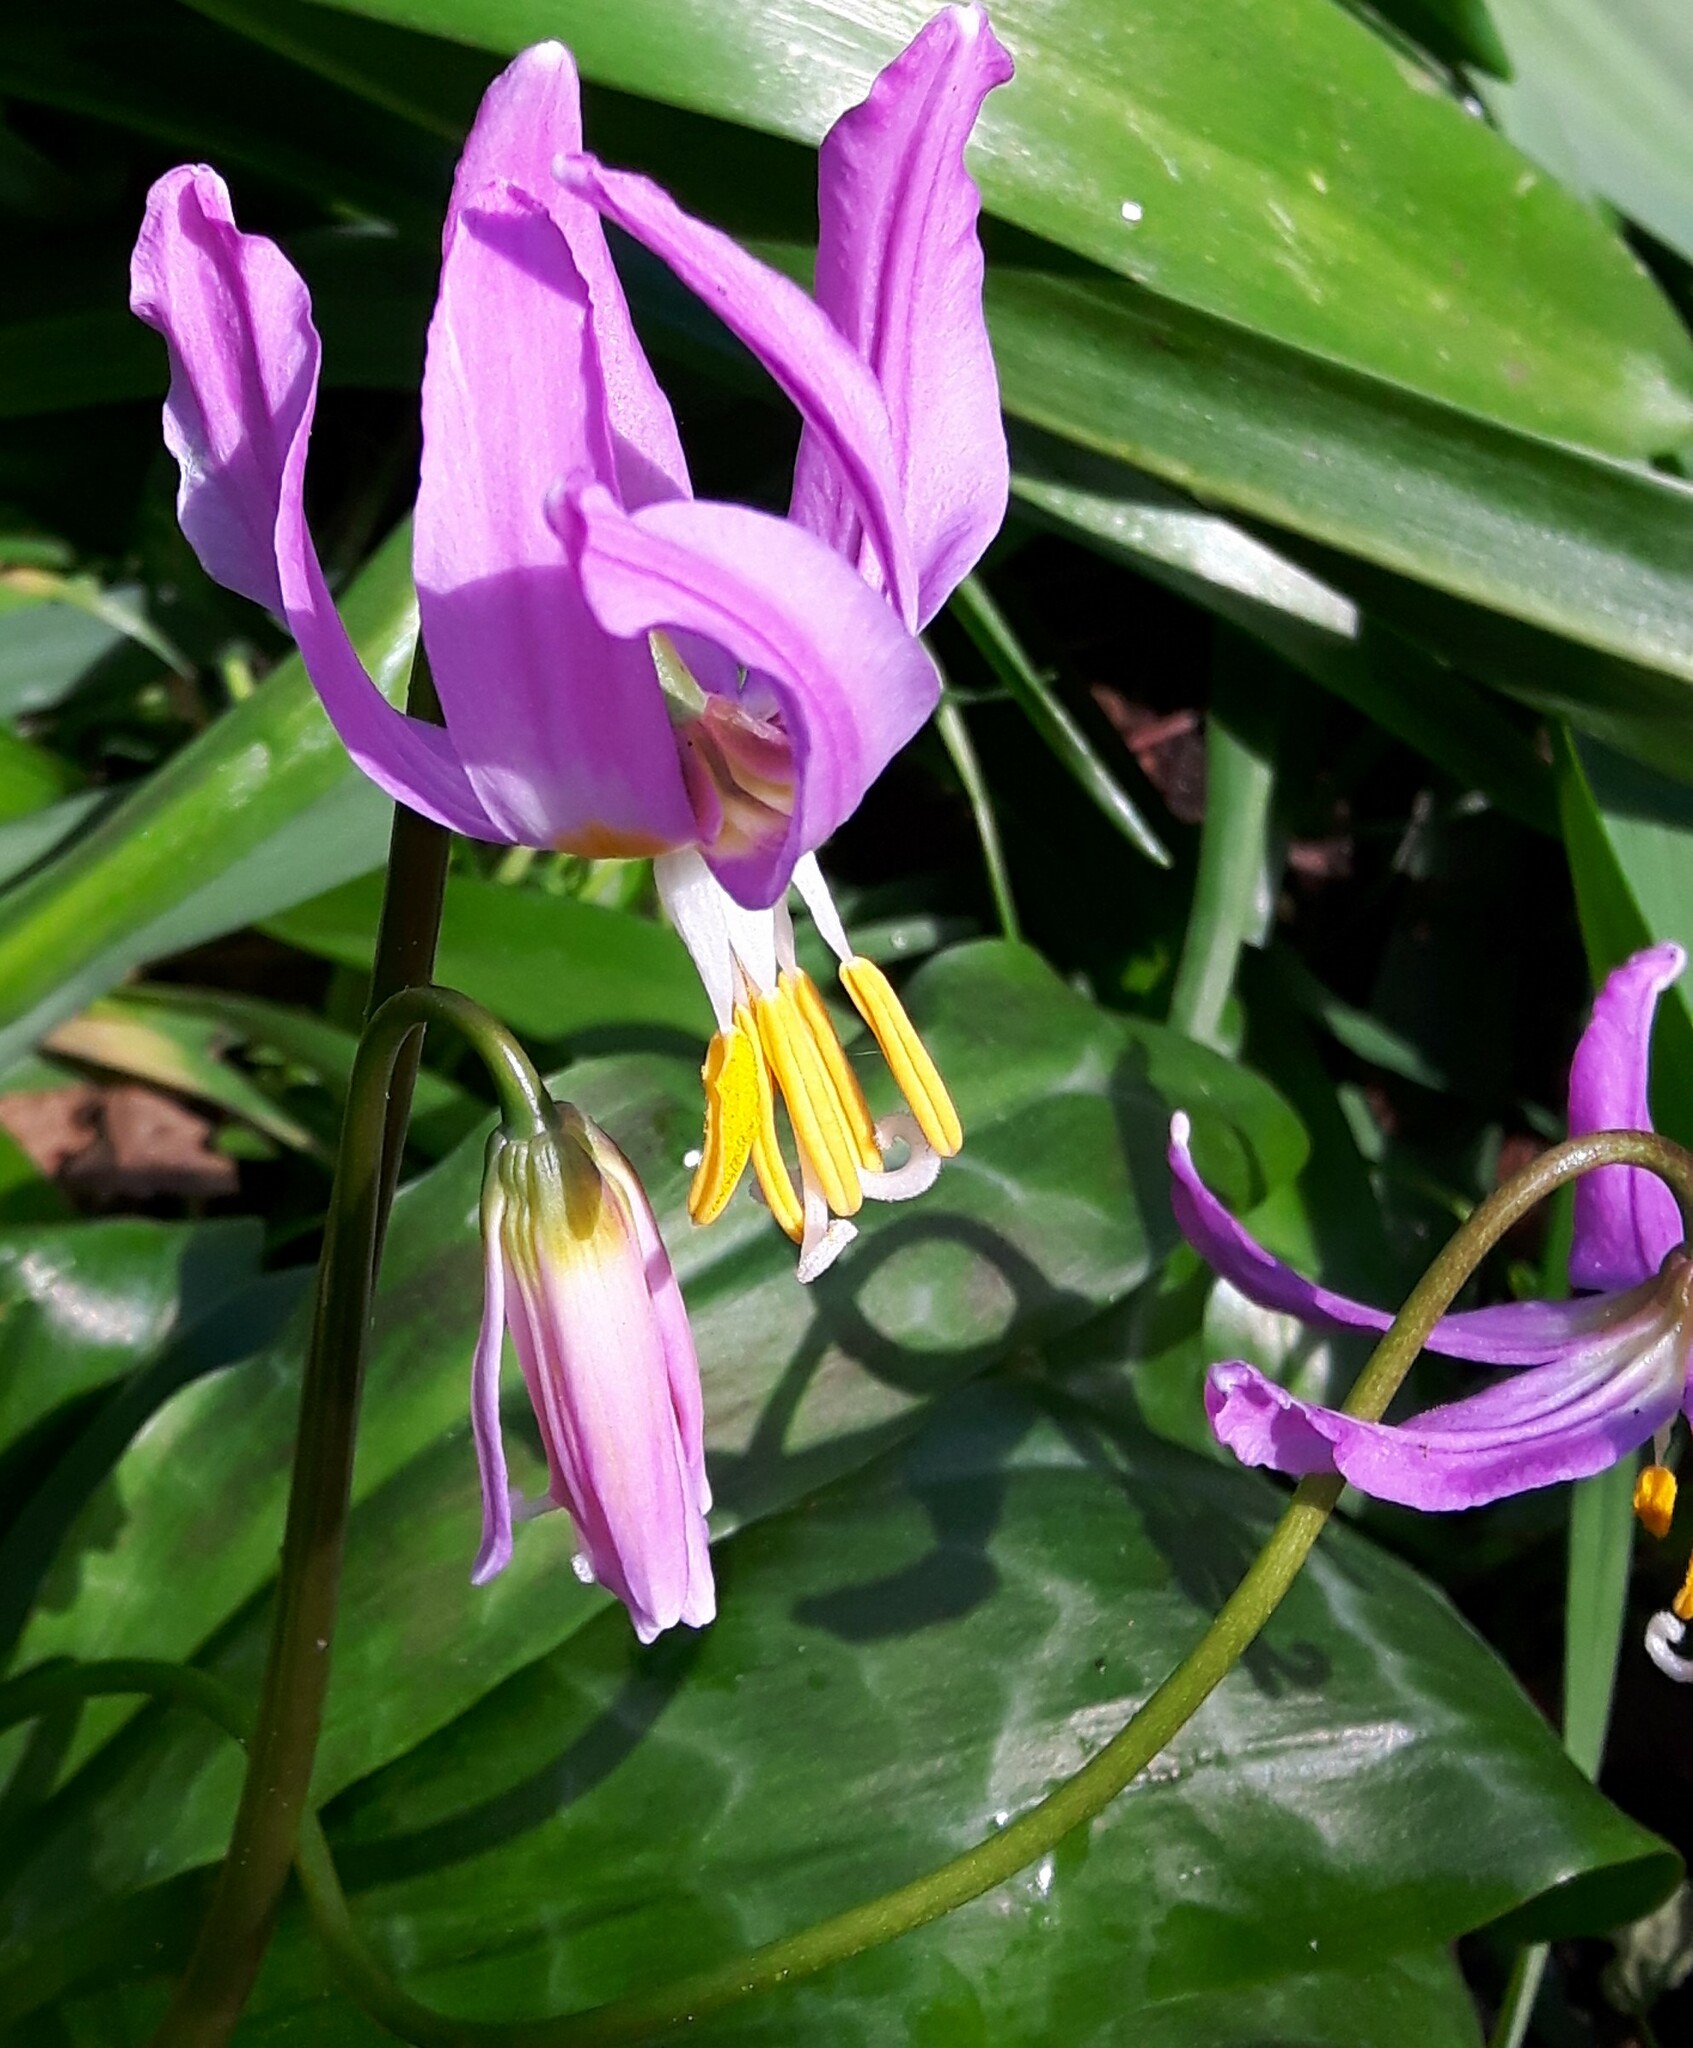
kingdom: Plantae
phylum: Tracheophyta
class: Liliopsida
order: Liliales
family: Liliaceae
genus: Erythronium
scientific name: Erythronium revolutum
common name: Pink fawn-lily
